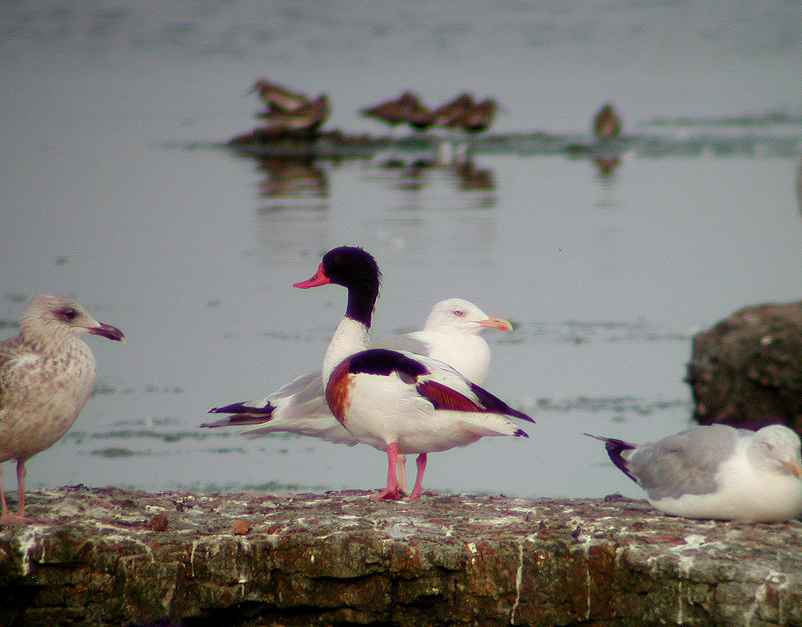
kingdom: Animalia
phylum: Chordata
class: Aves
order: Anseriformes
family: Anatidae
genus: Tadorna
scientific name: Tadorna tadorna
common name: Common shelduck
